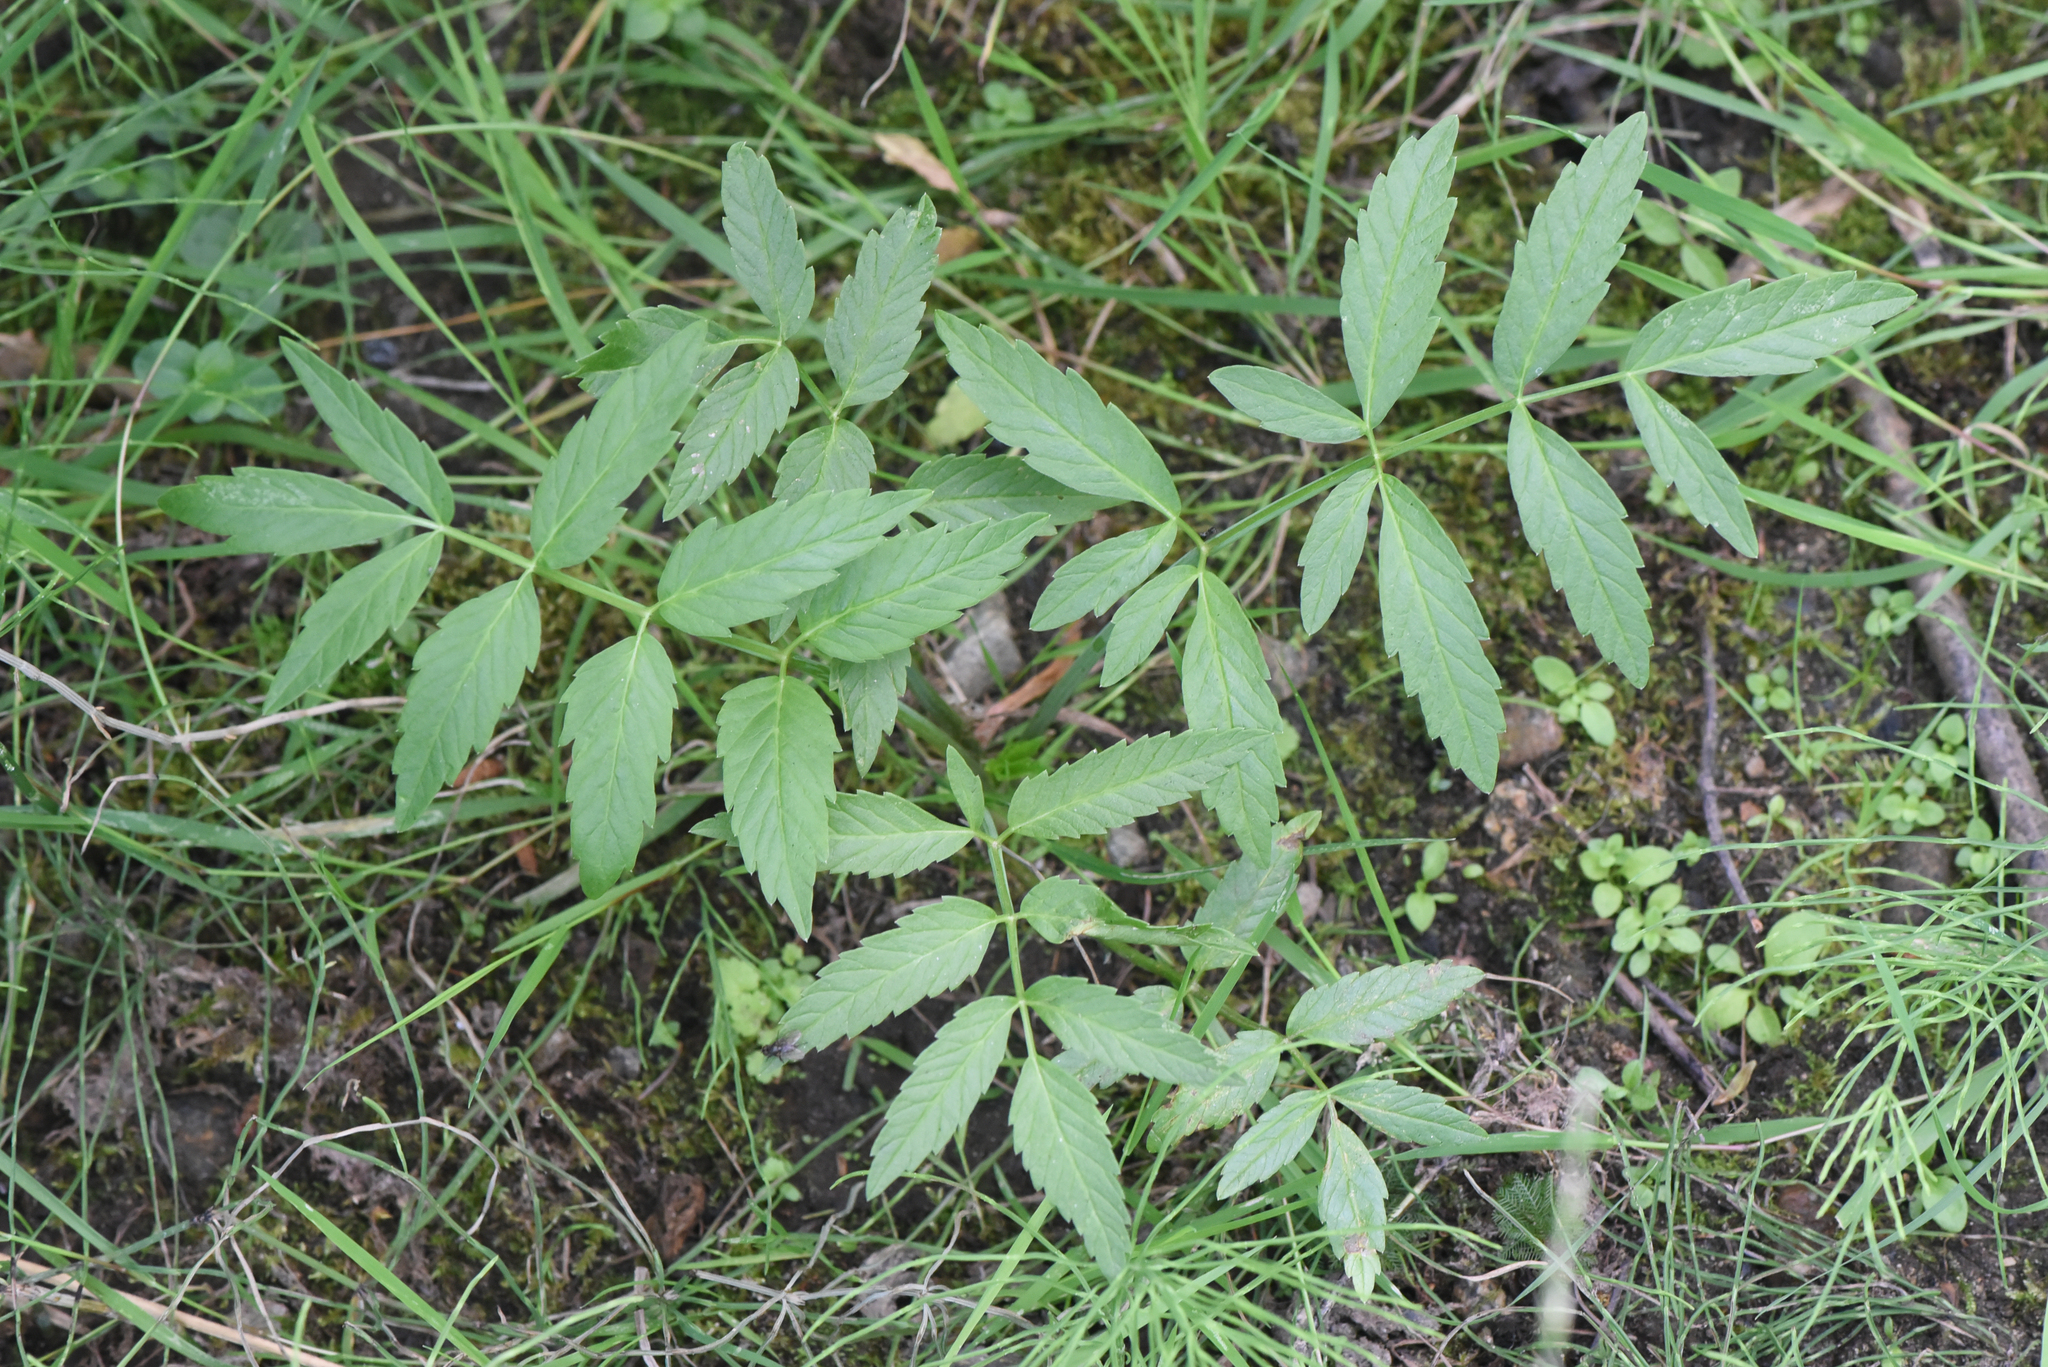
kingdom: Plantae
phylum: Tracheophyta
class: Magnoliopsida
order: Apiales
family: Apiaceae
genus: Cicuta
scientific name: Cicuta douglasii
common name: Western water-hemlock
